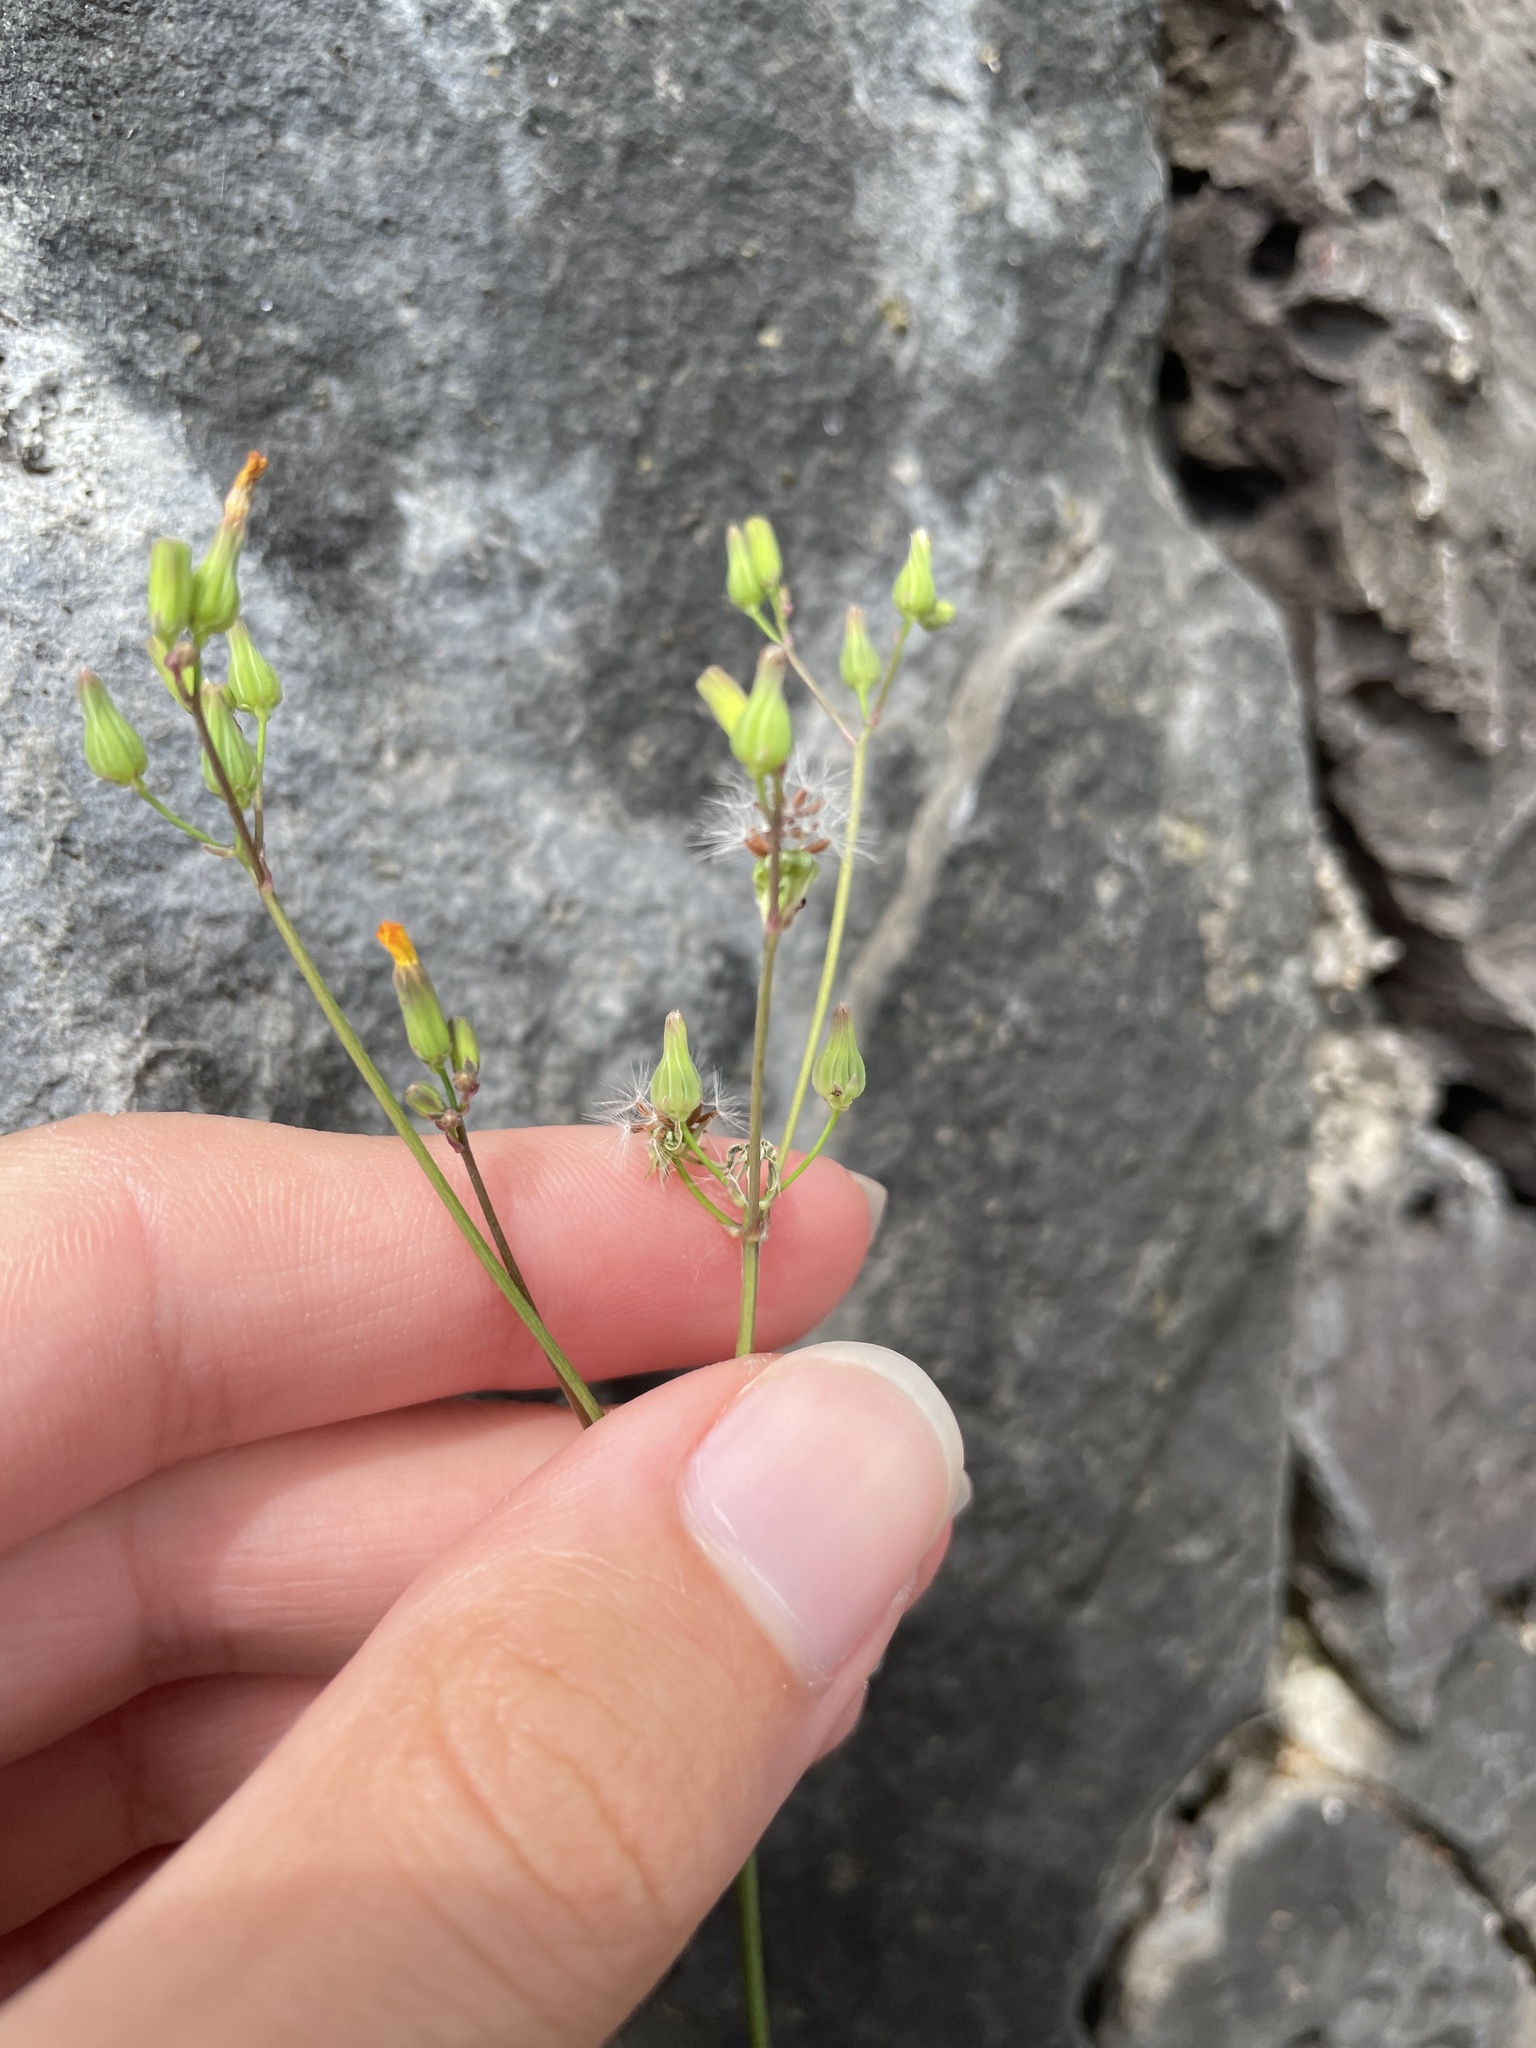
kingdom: Plantae
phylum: Tracheophyta
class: Magnoliopsida
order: Asterales
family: Asteraceae
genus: Youngia
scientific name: Youngia japonica
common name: Oriental false hawksbeard
